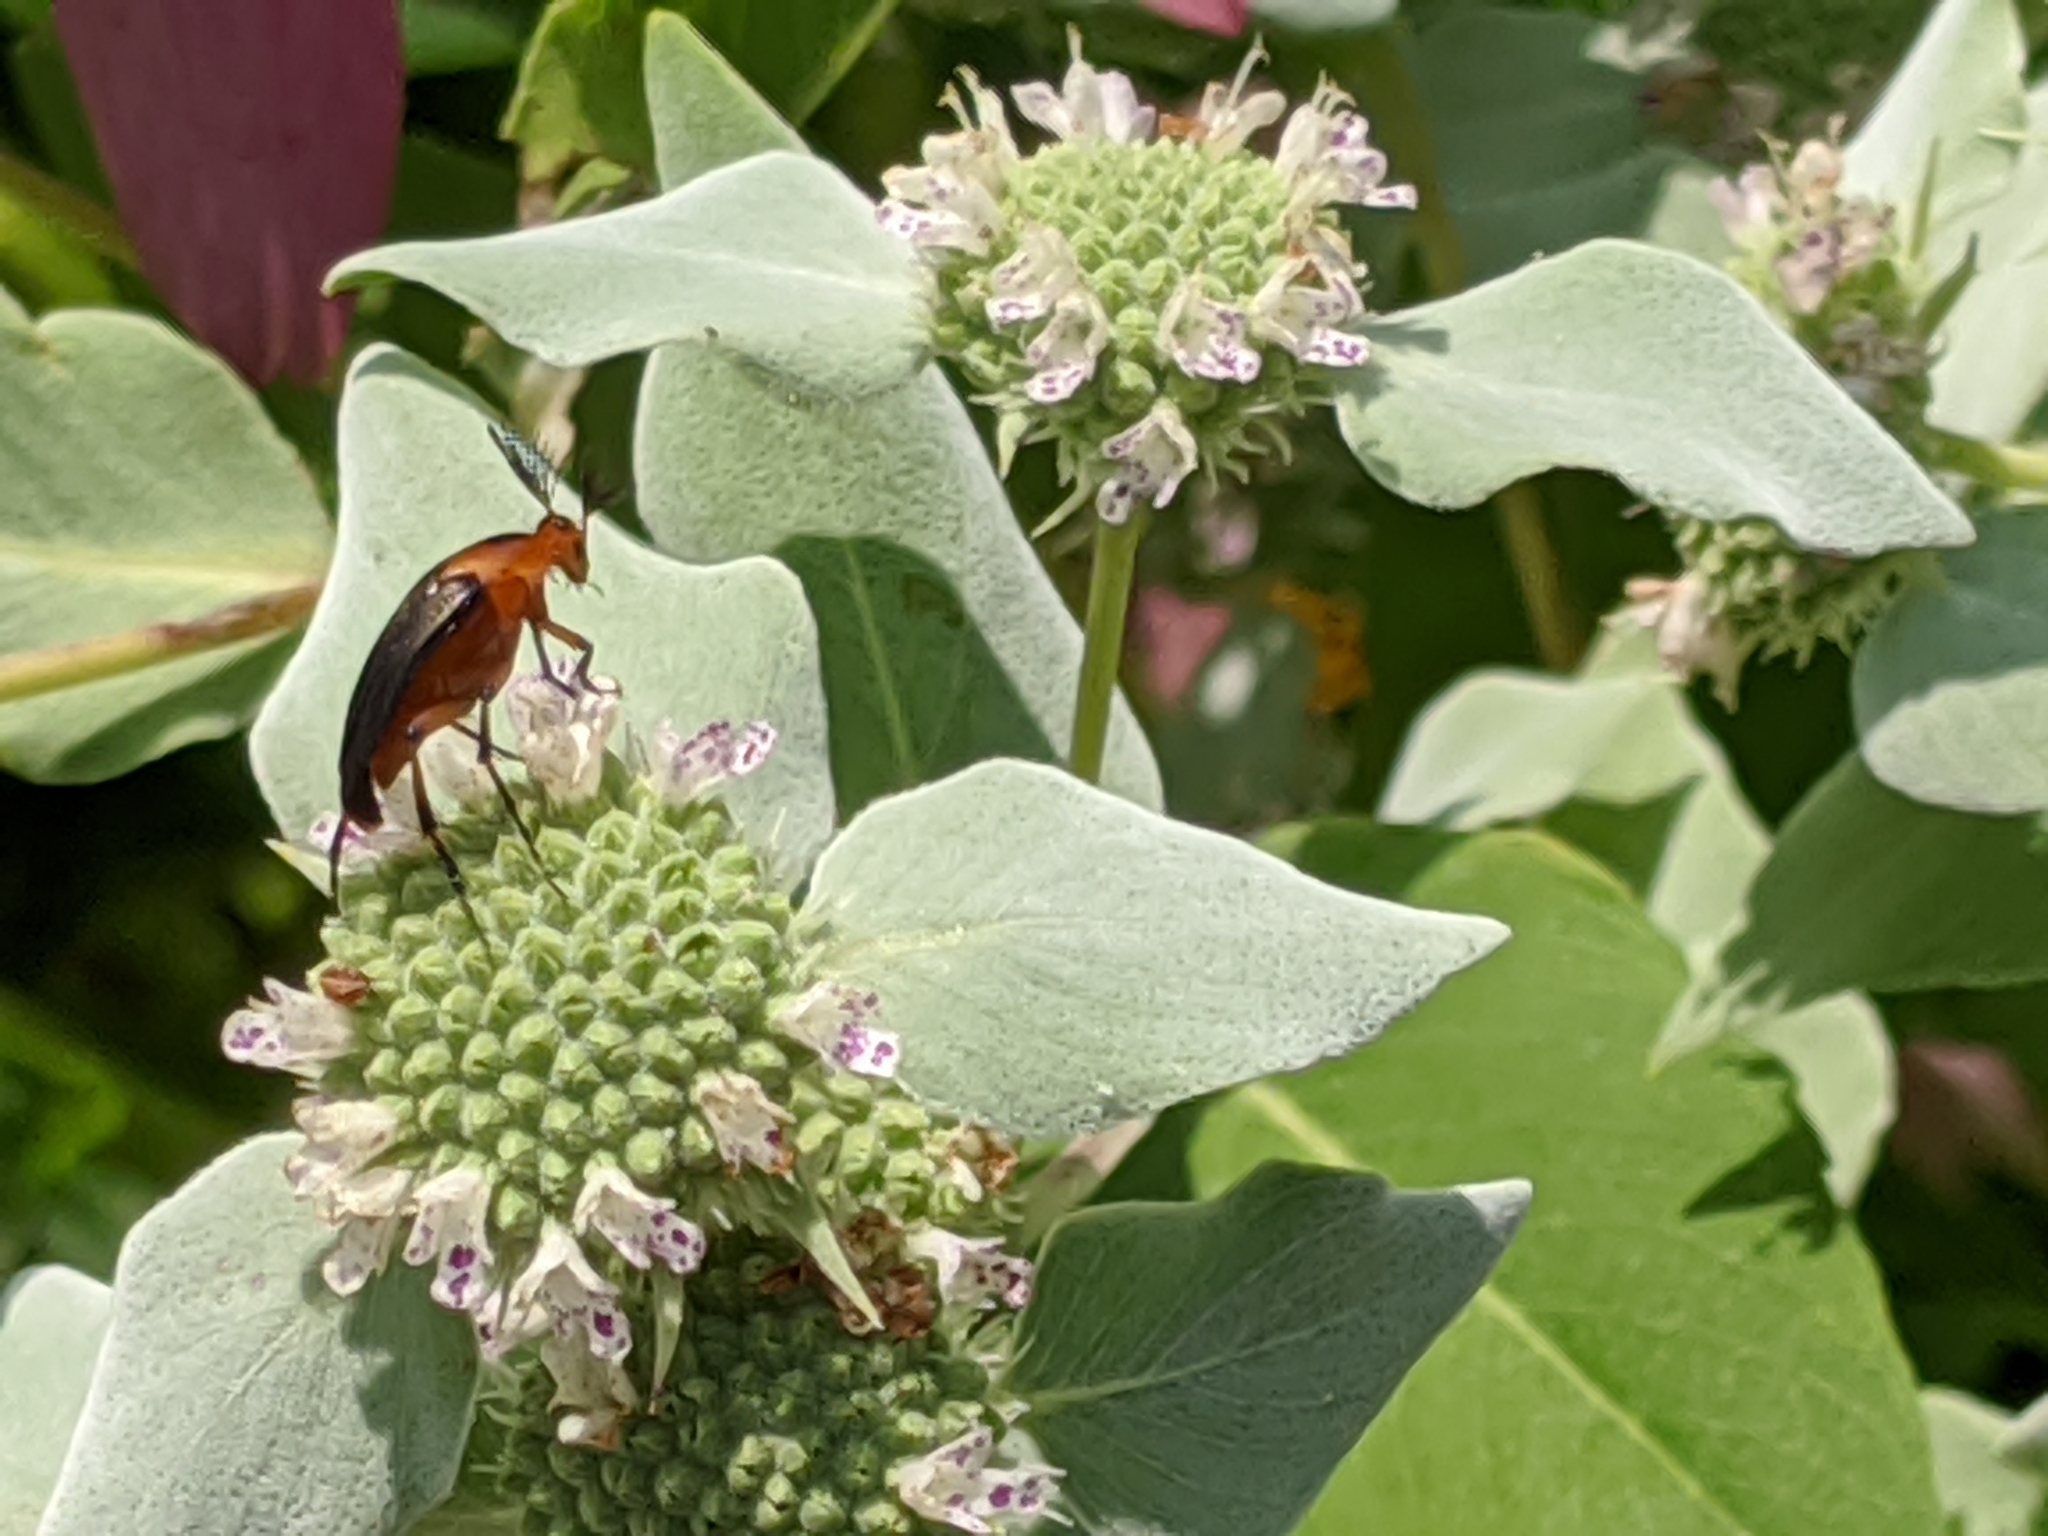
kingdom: Animalia
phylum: Arthropoda
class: Insecta
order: Coleoptera
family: Ripiphoridae
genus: Macrosiagon
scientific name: Macrosiagon limbatum
